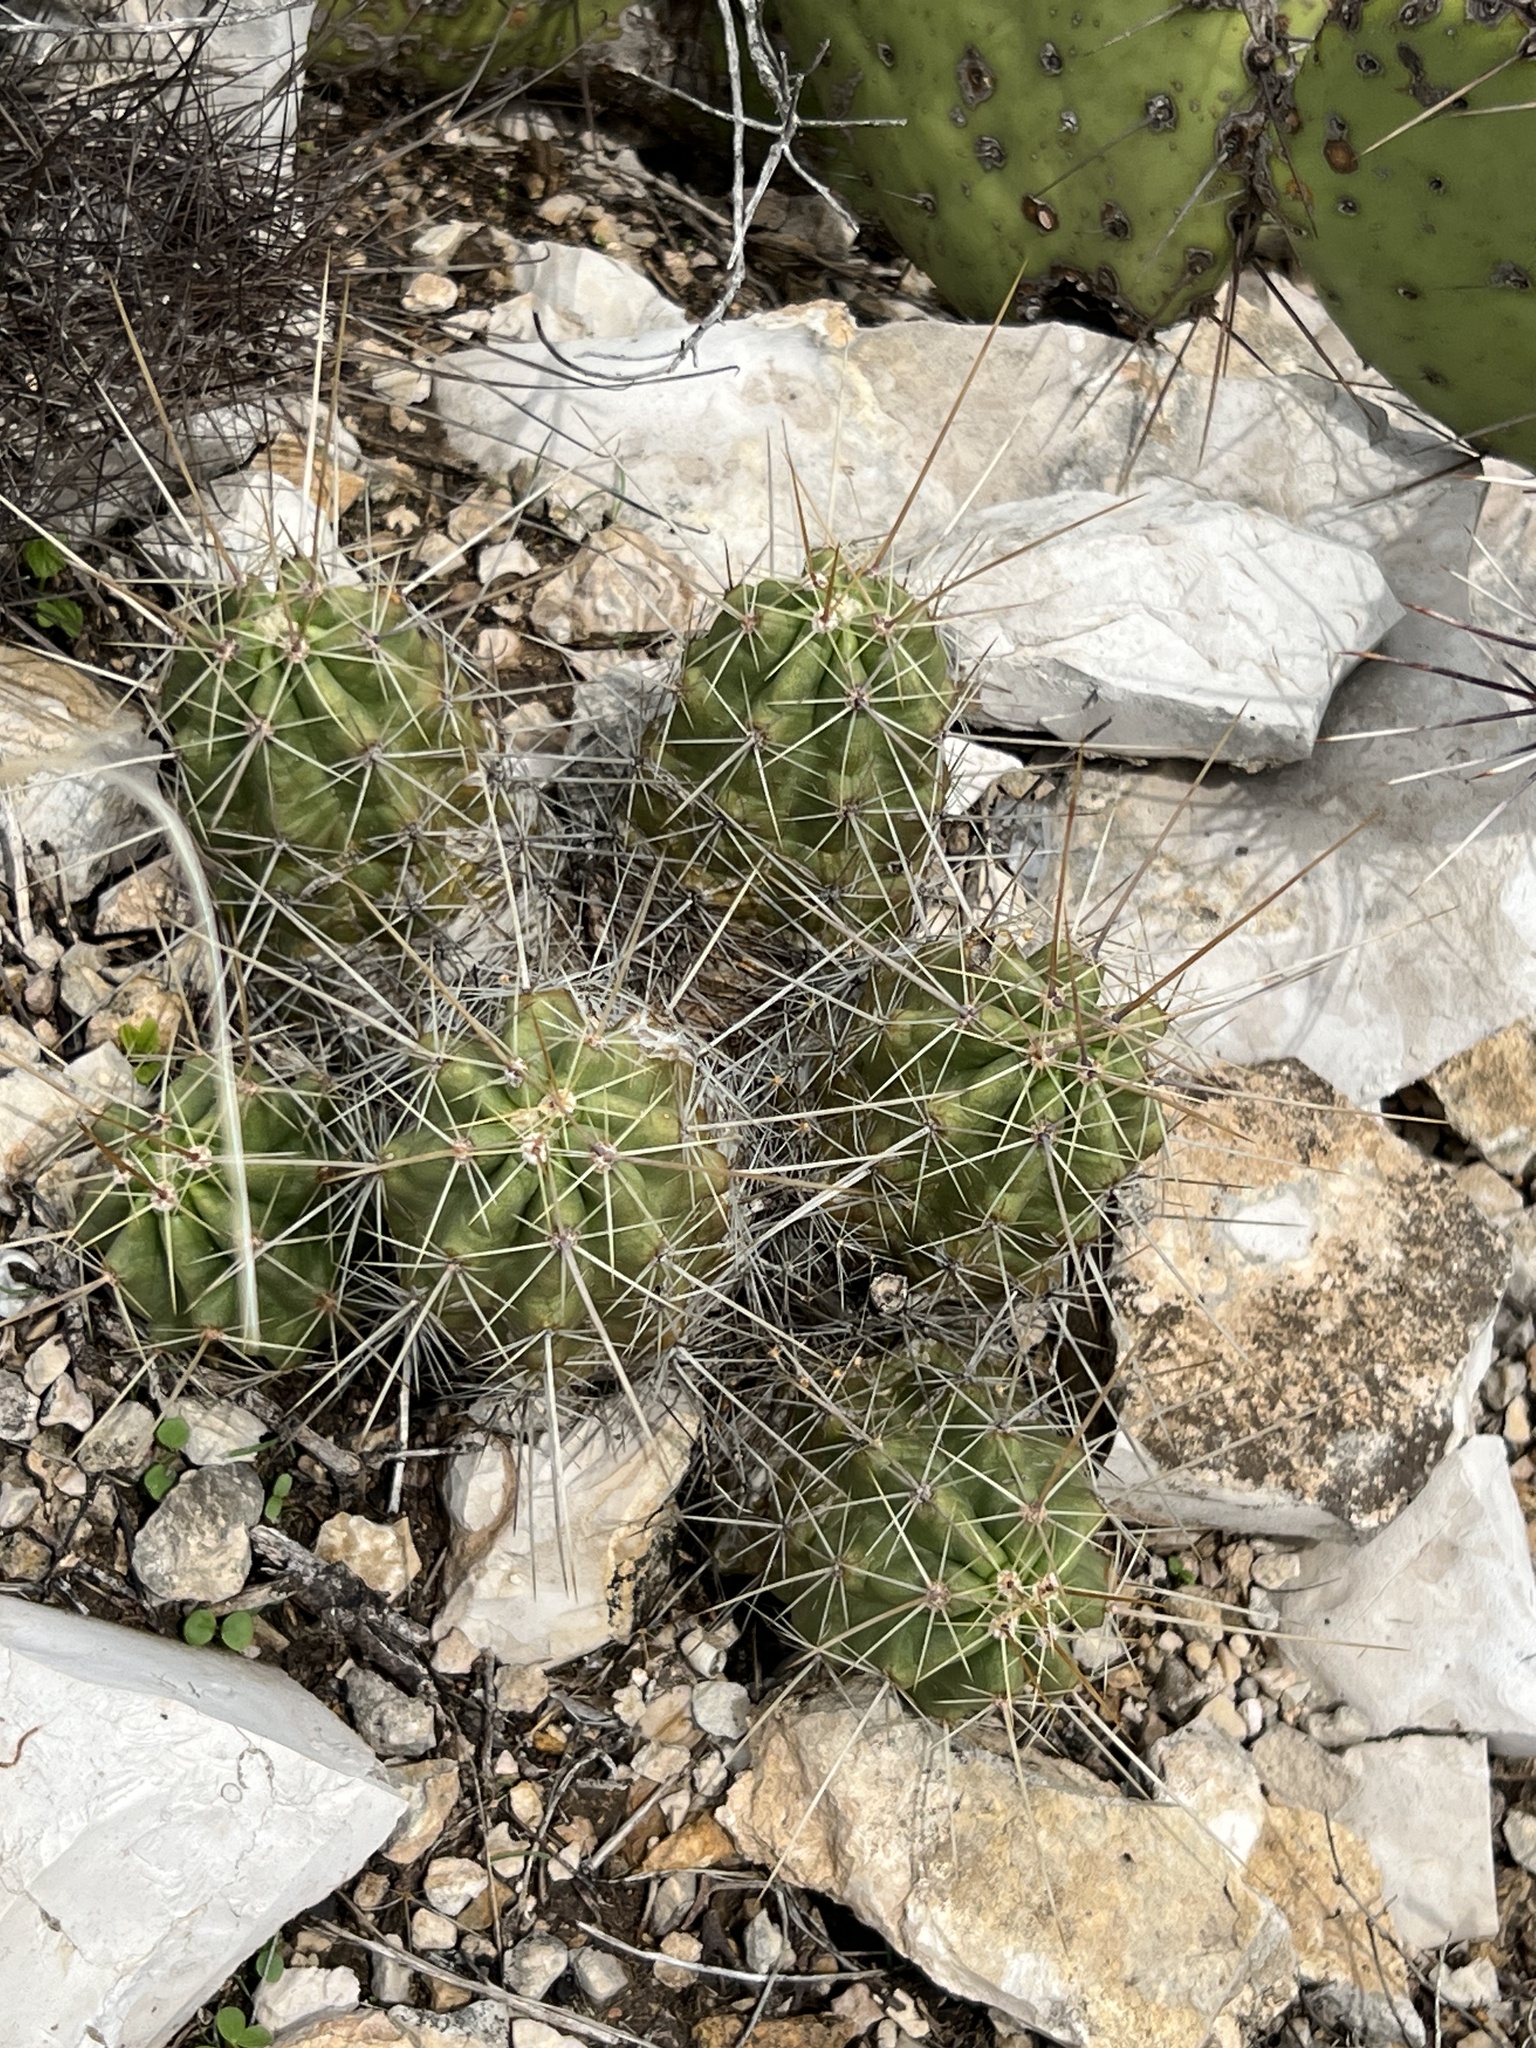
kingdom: Plantae
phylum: Tracheophyta
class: Magnoliopsida
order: Caryophyllales
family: Cactaceae
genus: Echinocereus
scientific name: Echinocereus enneacanthus
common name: Pitaya
